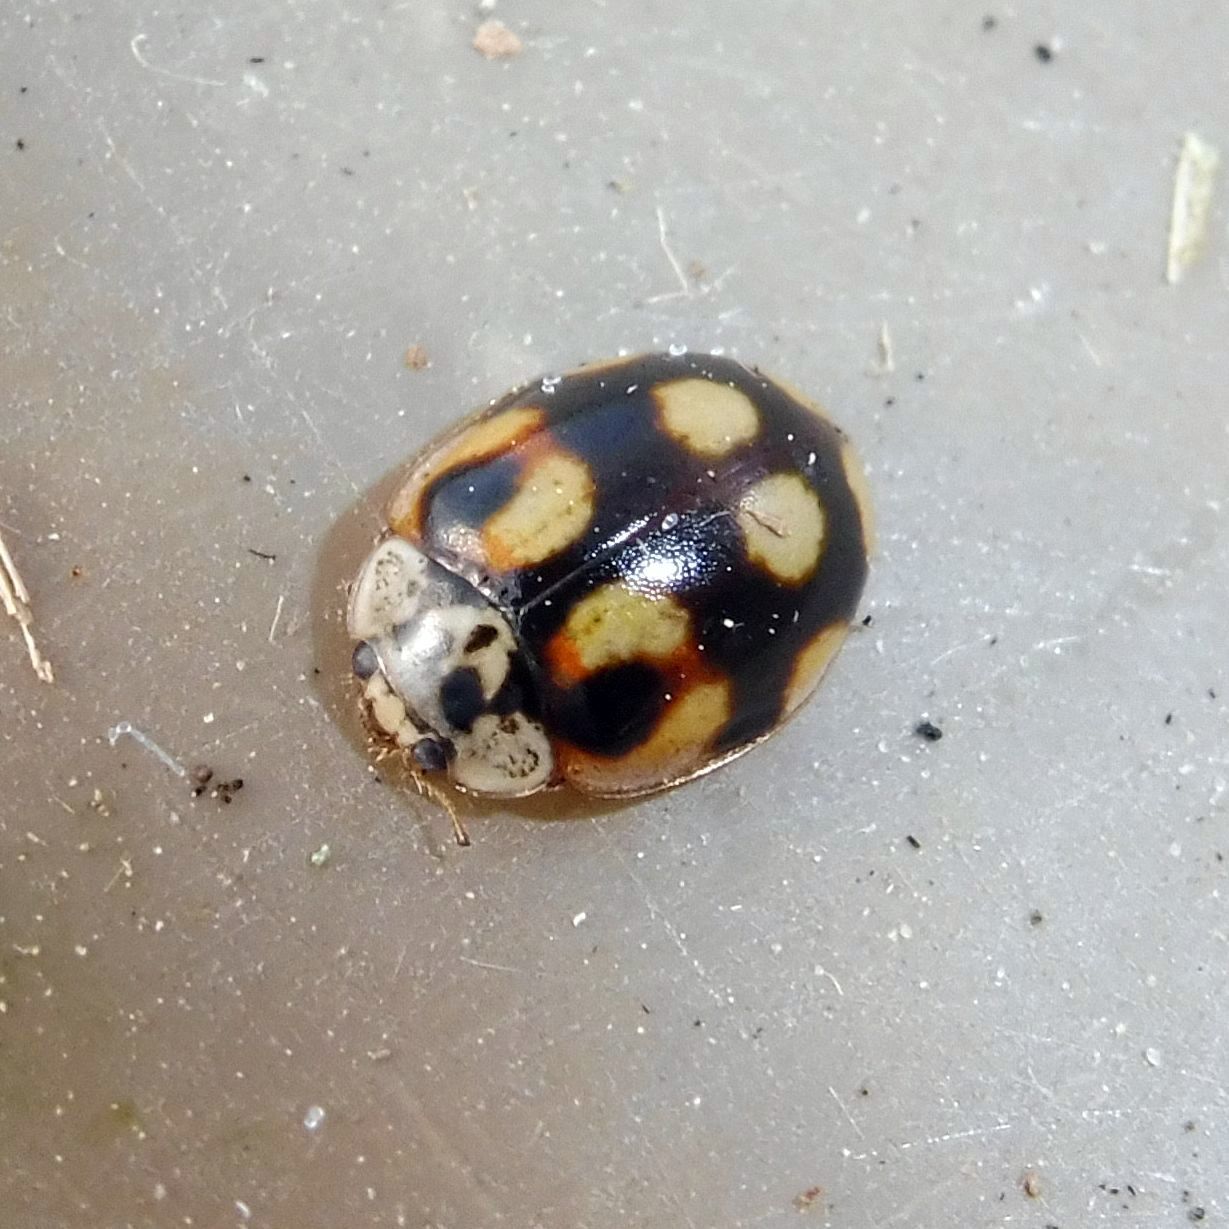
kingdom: Animalia
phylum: Arthropoda
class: Insecta
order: Coleoptera
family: Coccinellidae
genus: Adalia
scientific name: Adalia decempunctata
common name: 10-spot ladybird
